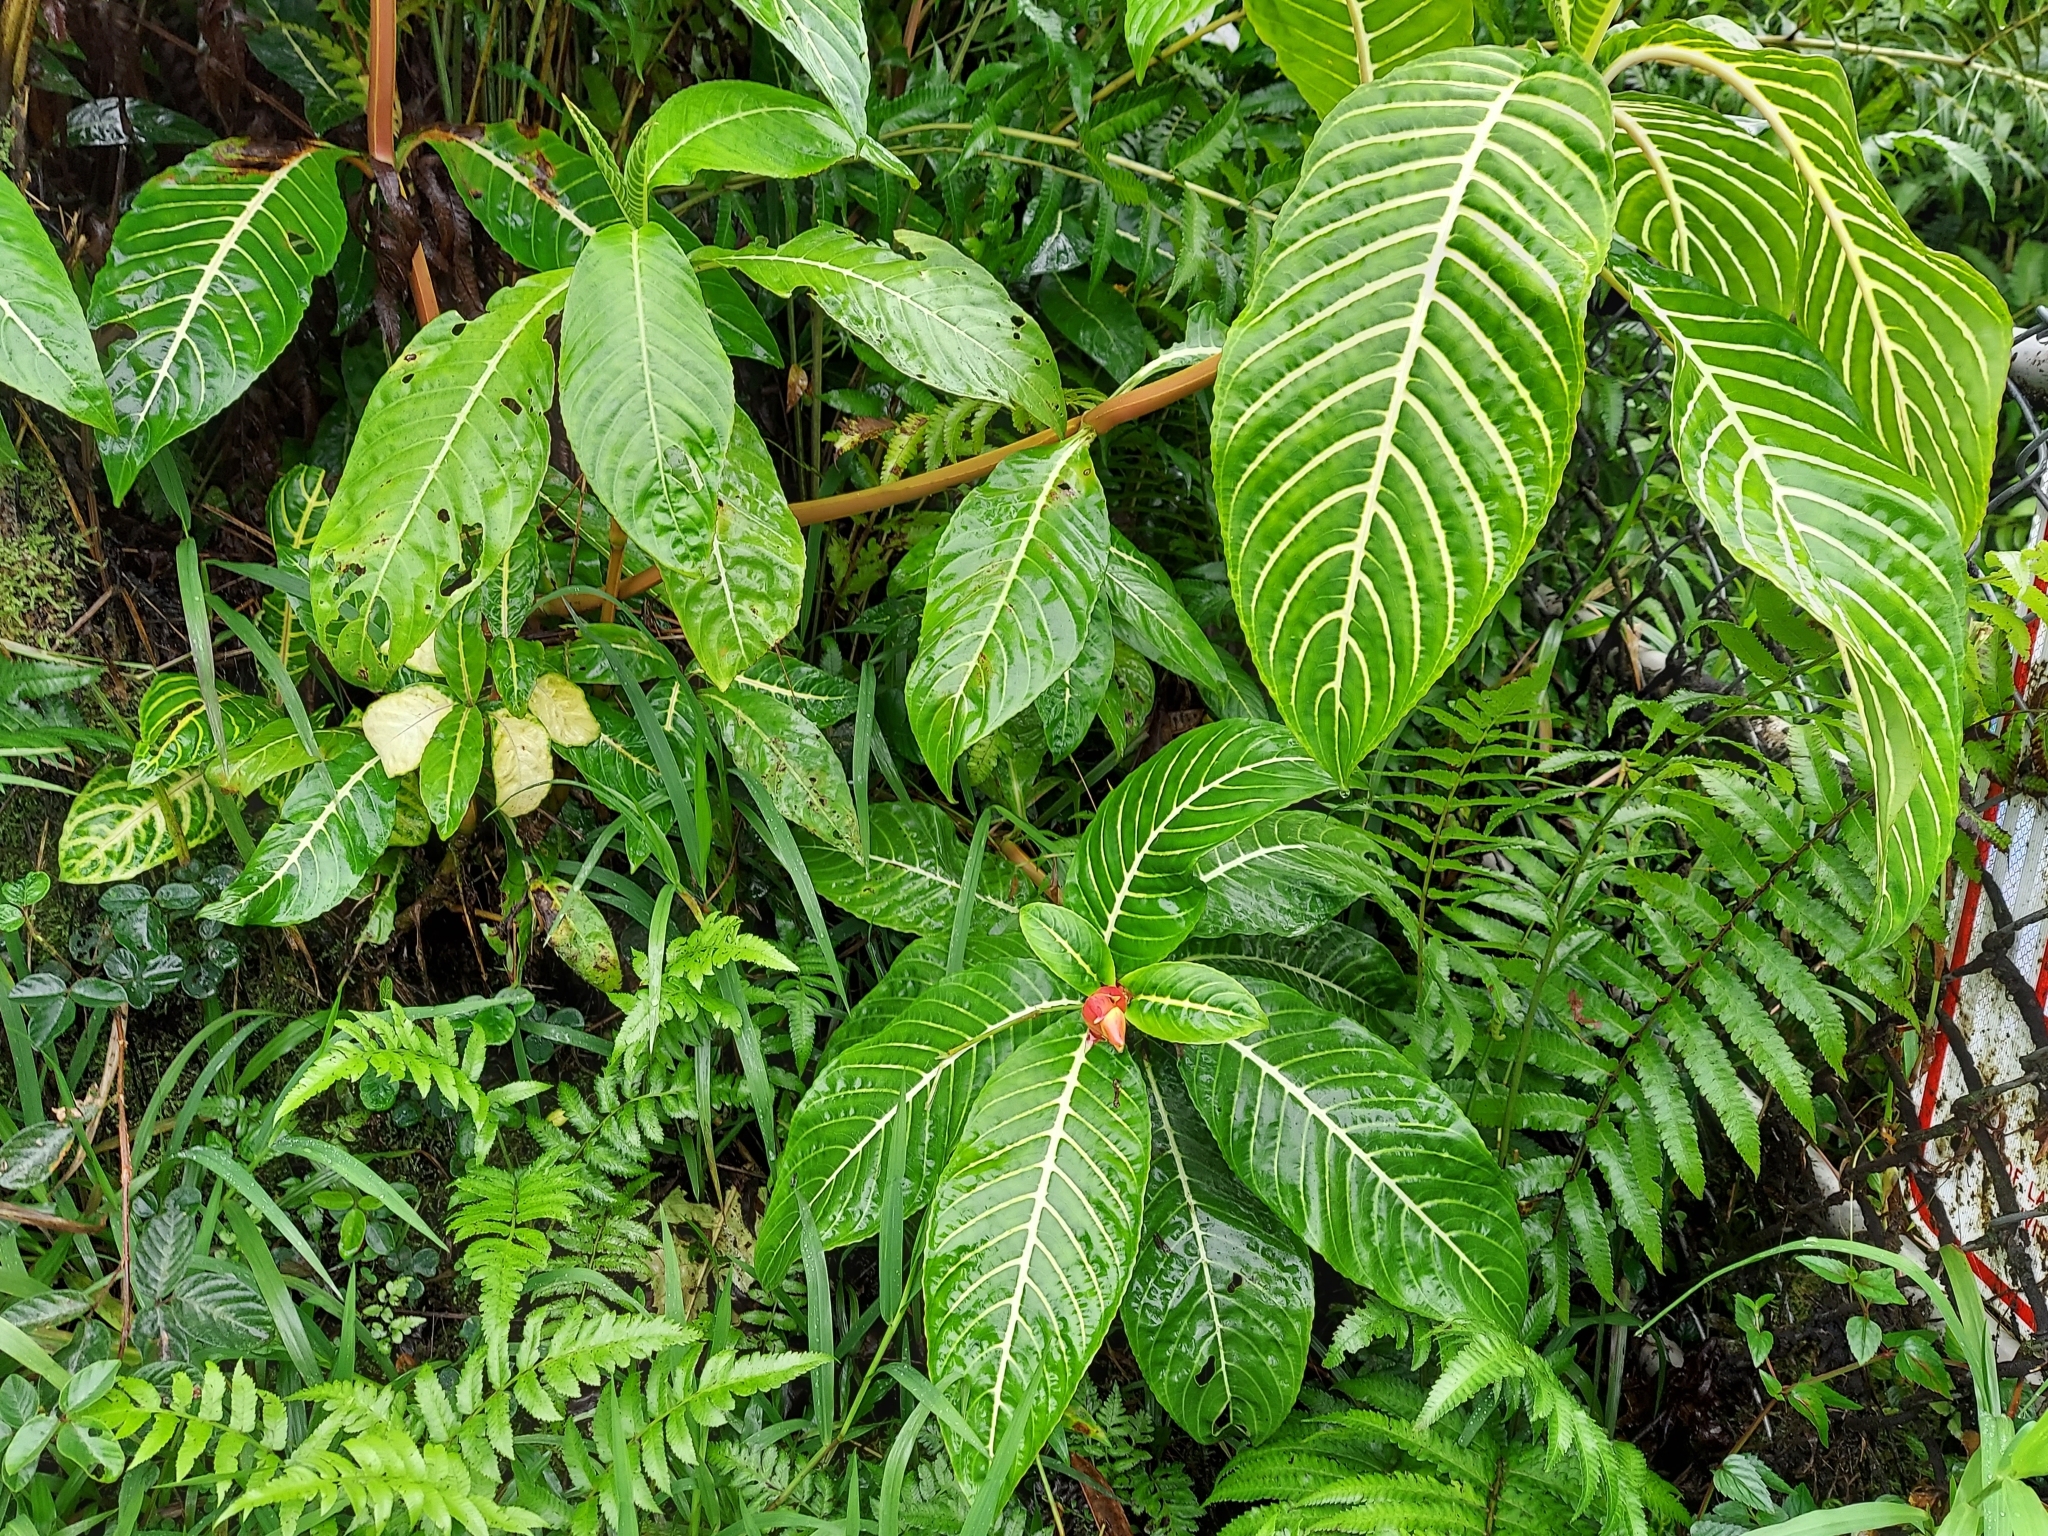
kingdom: Plantae
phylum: Tracheophyta
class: Magnoliopsida
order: Lamiales
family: Acanthaceae
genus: Sanchezia
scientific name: Sanchezia oblonga
